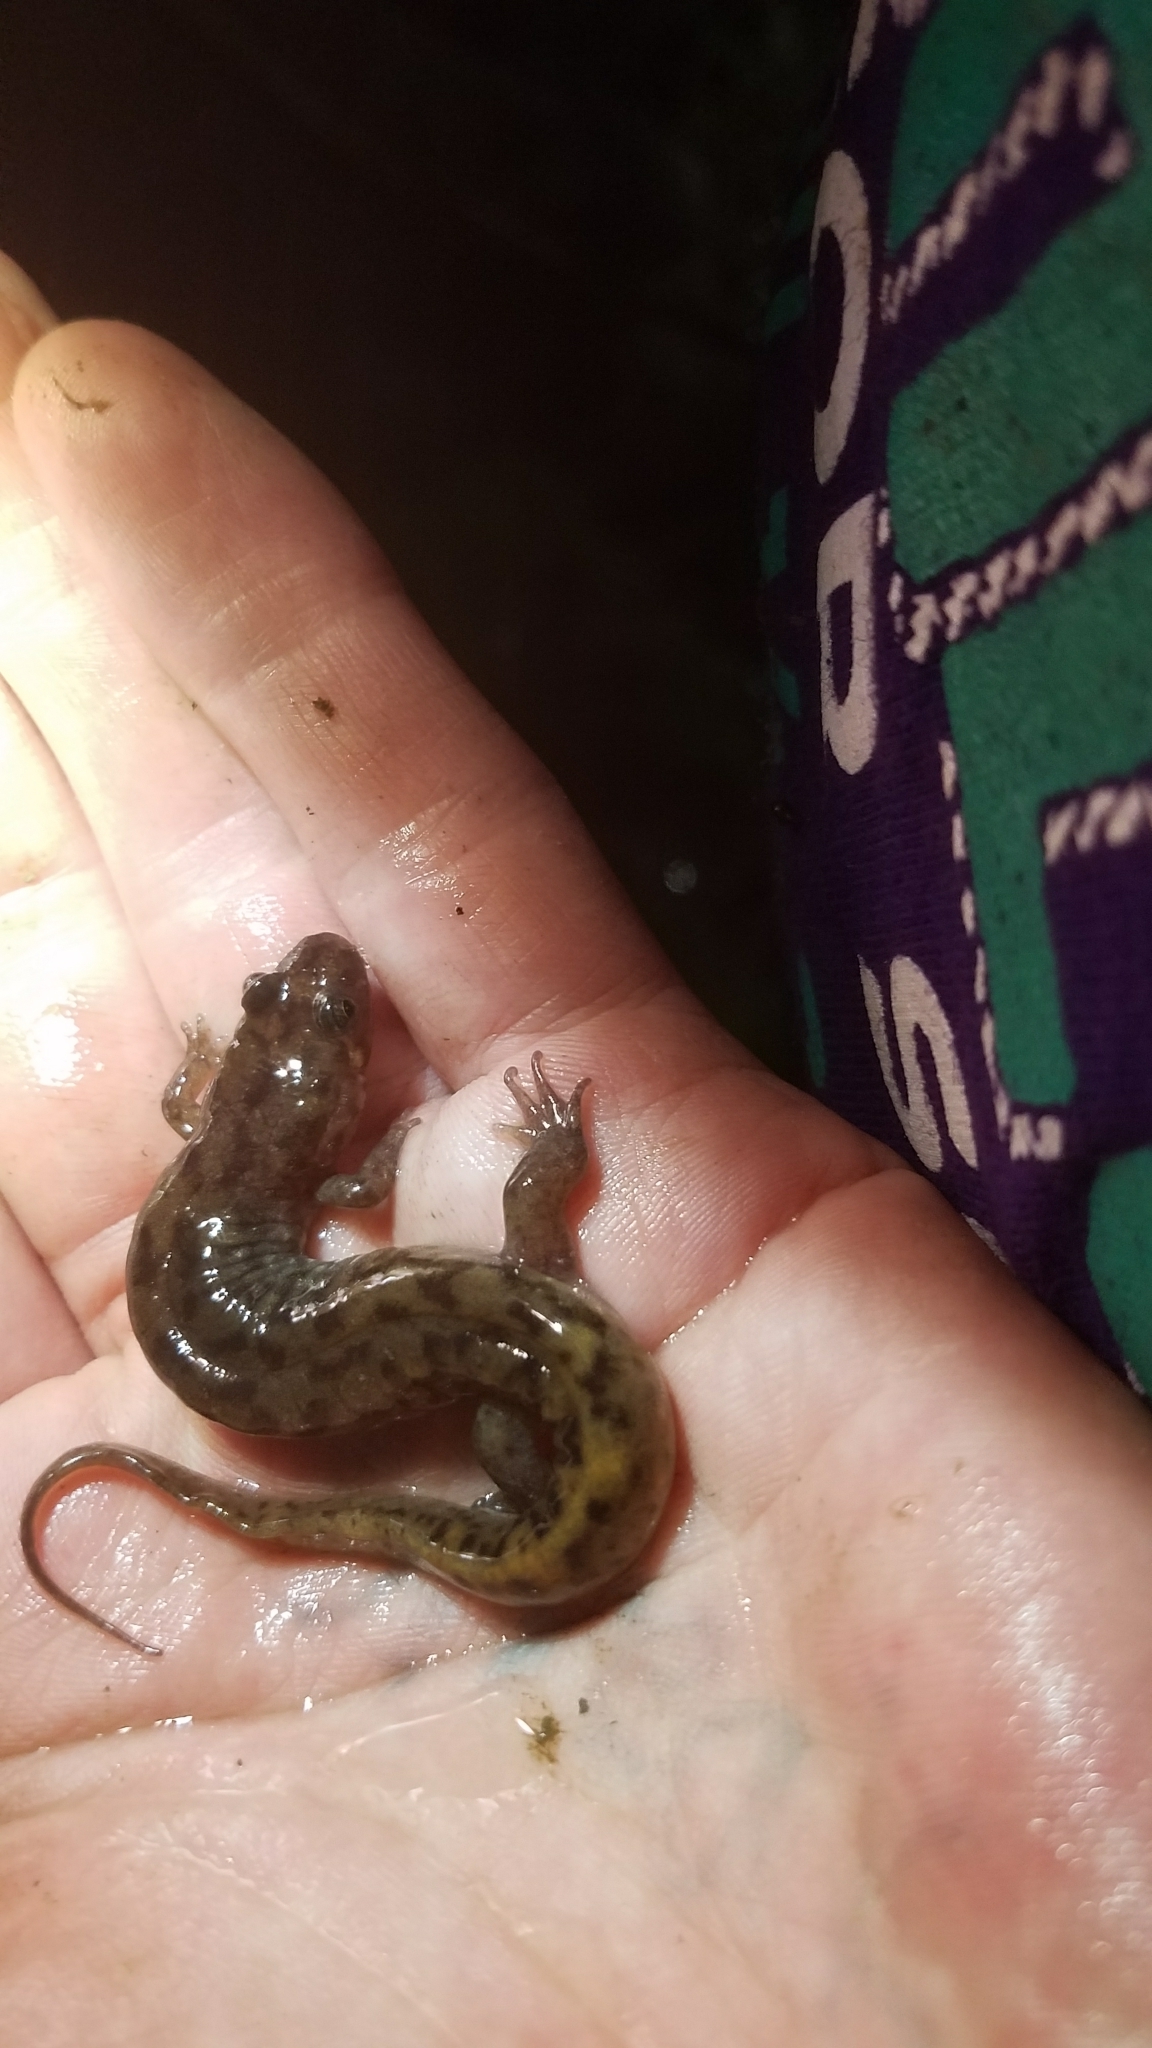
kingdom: Animalia
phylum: Chordata
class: Amphibia
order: Caudata
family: Plethodontidae
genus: Desmognathus
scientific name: Desmognathus monticola
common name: Seal salamander
